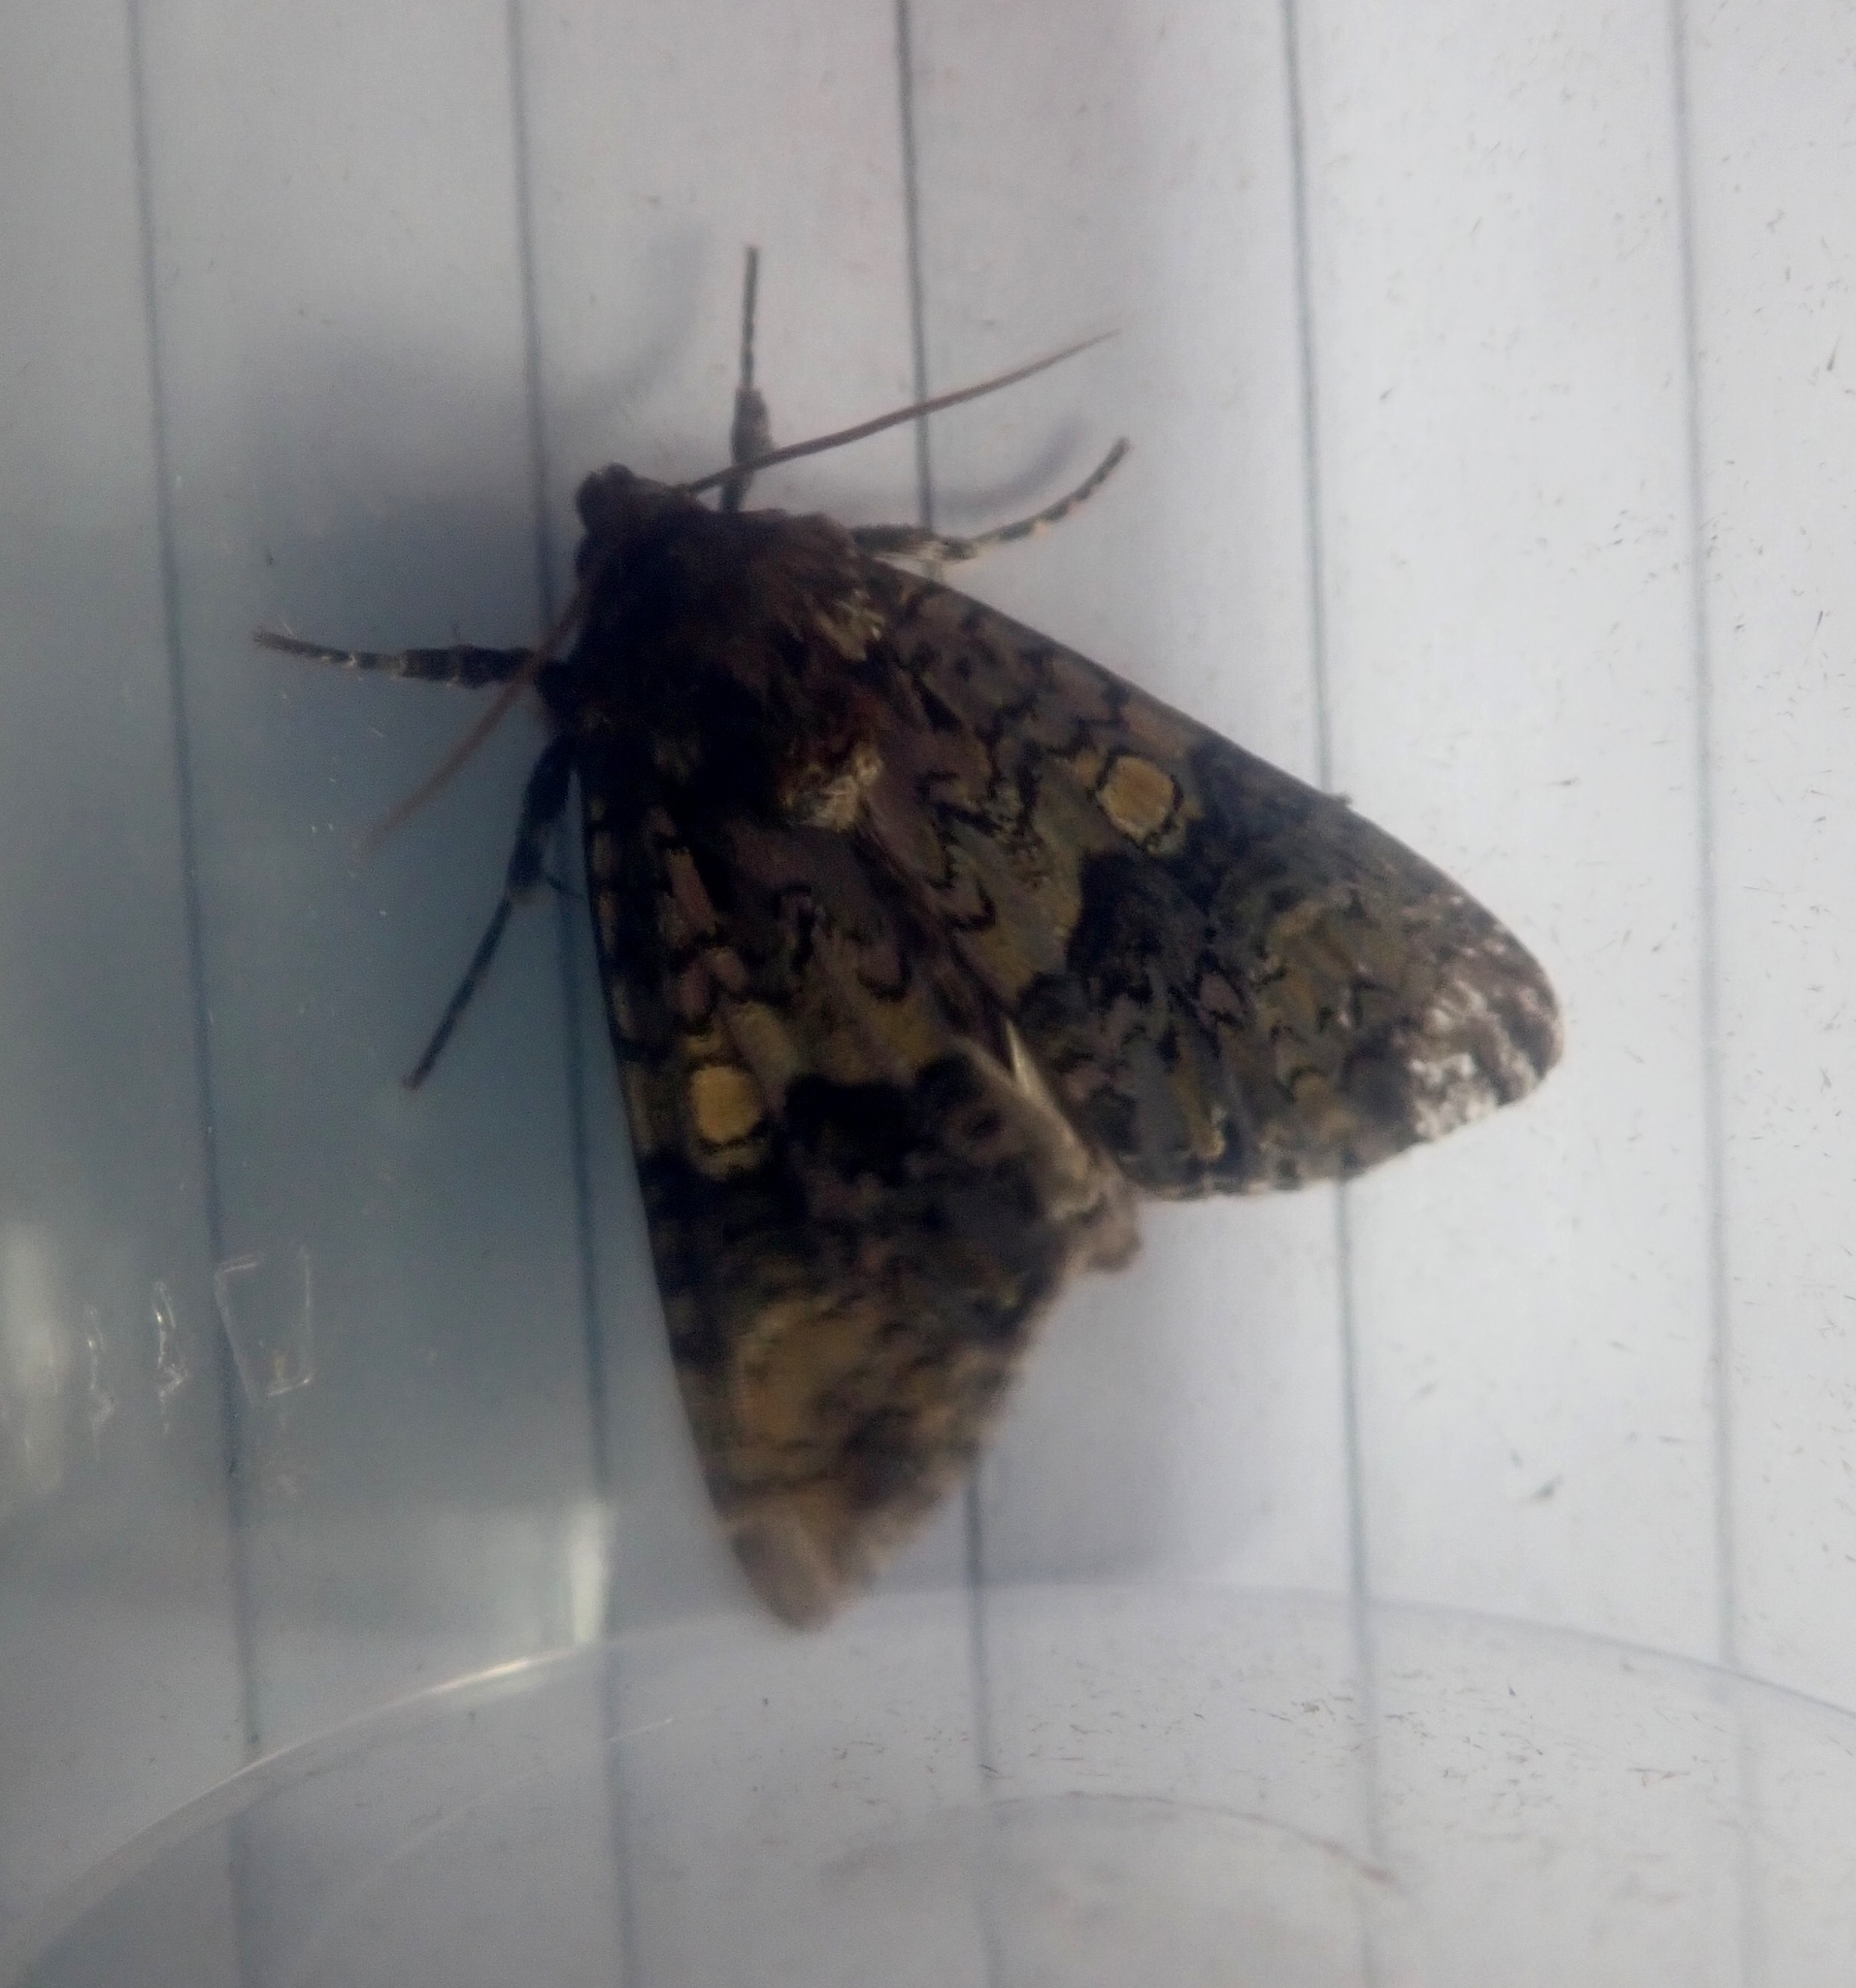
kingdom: Animalia
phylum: Arthropoda
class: Insecta
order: Lepidoptera
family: Noctuidae
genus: Craniophora
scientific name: Craniophora ligustri
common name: Coronet
